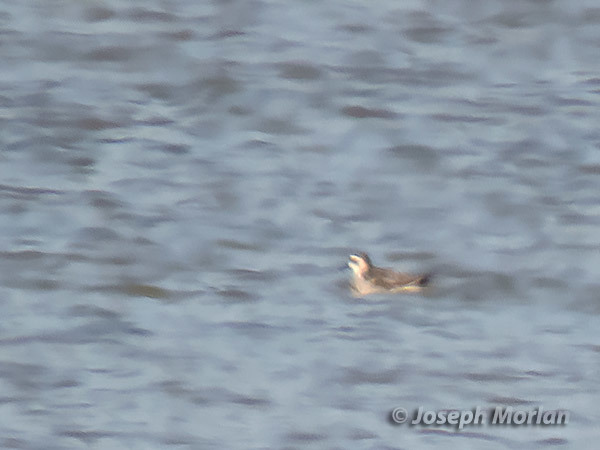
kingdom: Animalia
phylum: Chordata
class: Aves
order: Charadriiformes
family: Scolopacidae
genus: Phalaropus
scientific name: Phalaropus fulicarius
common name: Red phalarope
